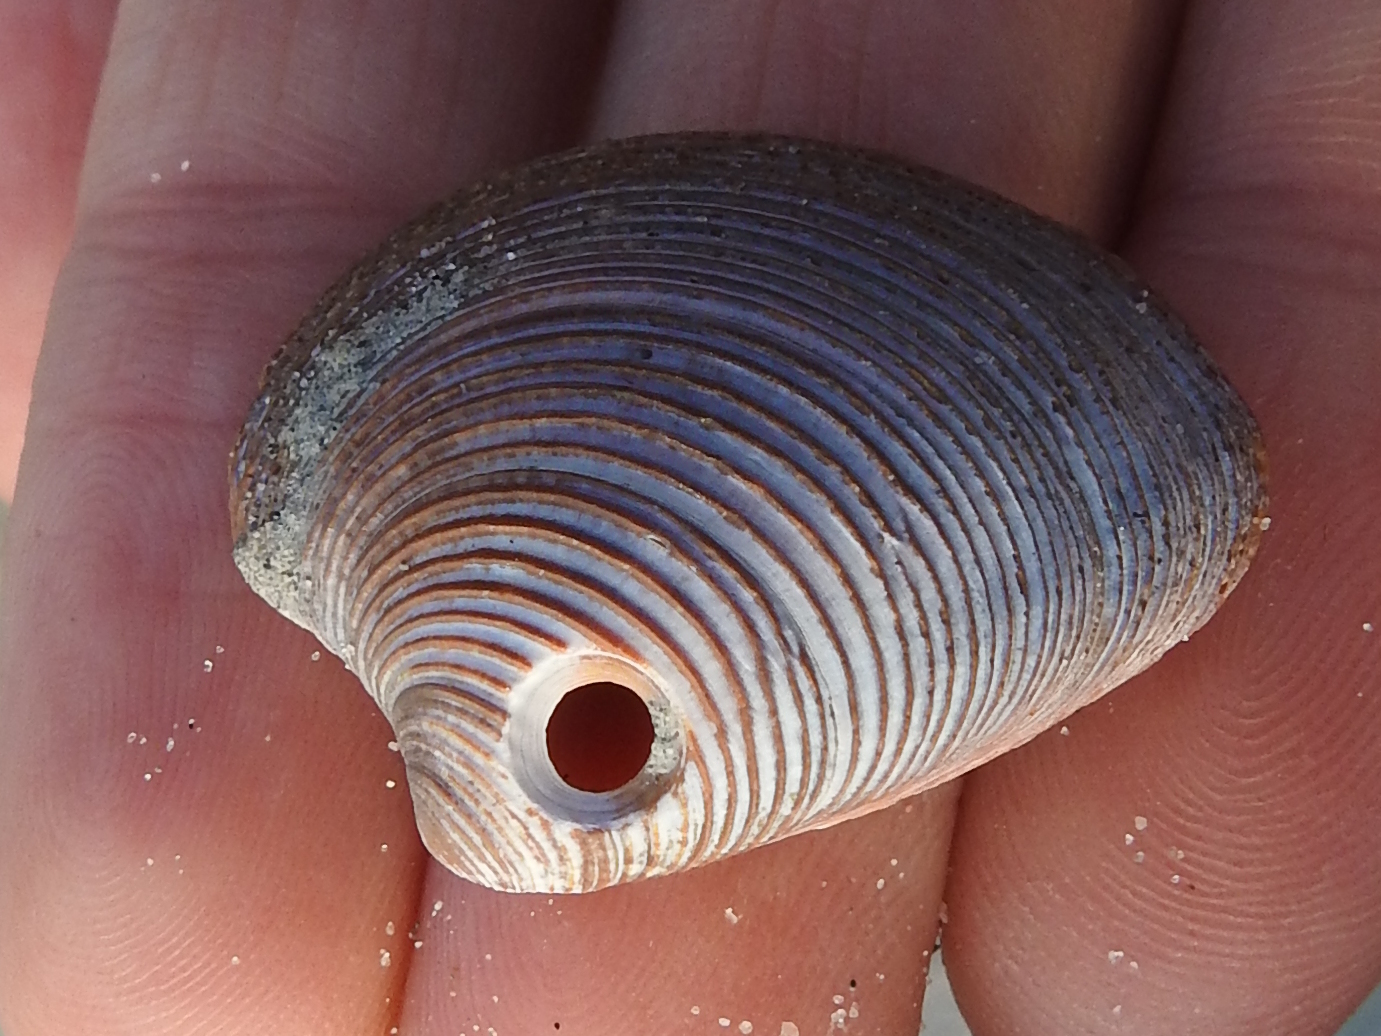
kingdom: Animalia
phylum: Mollusca
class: Bivalvia
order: Venerida
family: Veneridae
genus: Chamelea
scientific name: Chamelea striatula
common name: Striped venus
